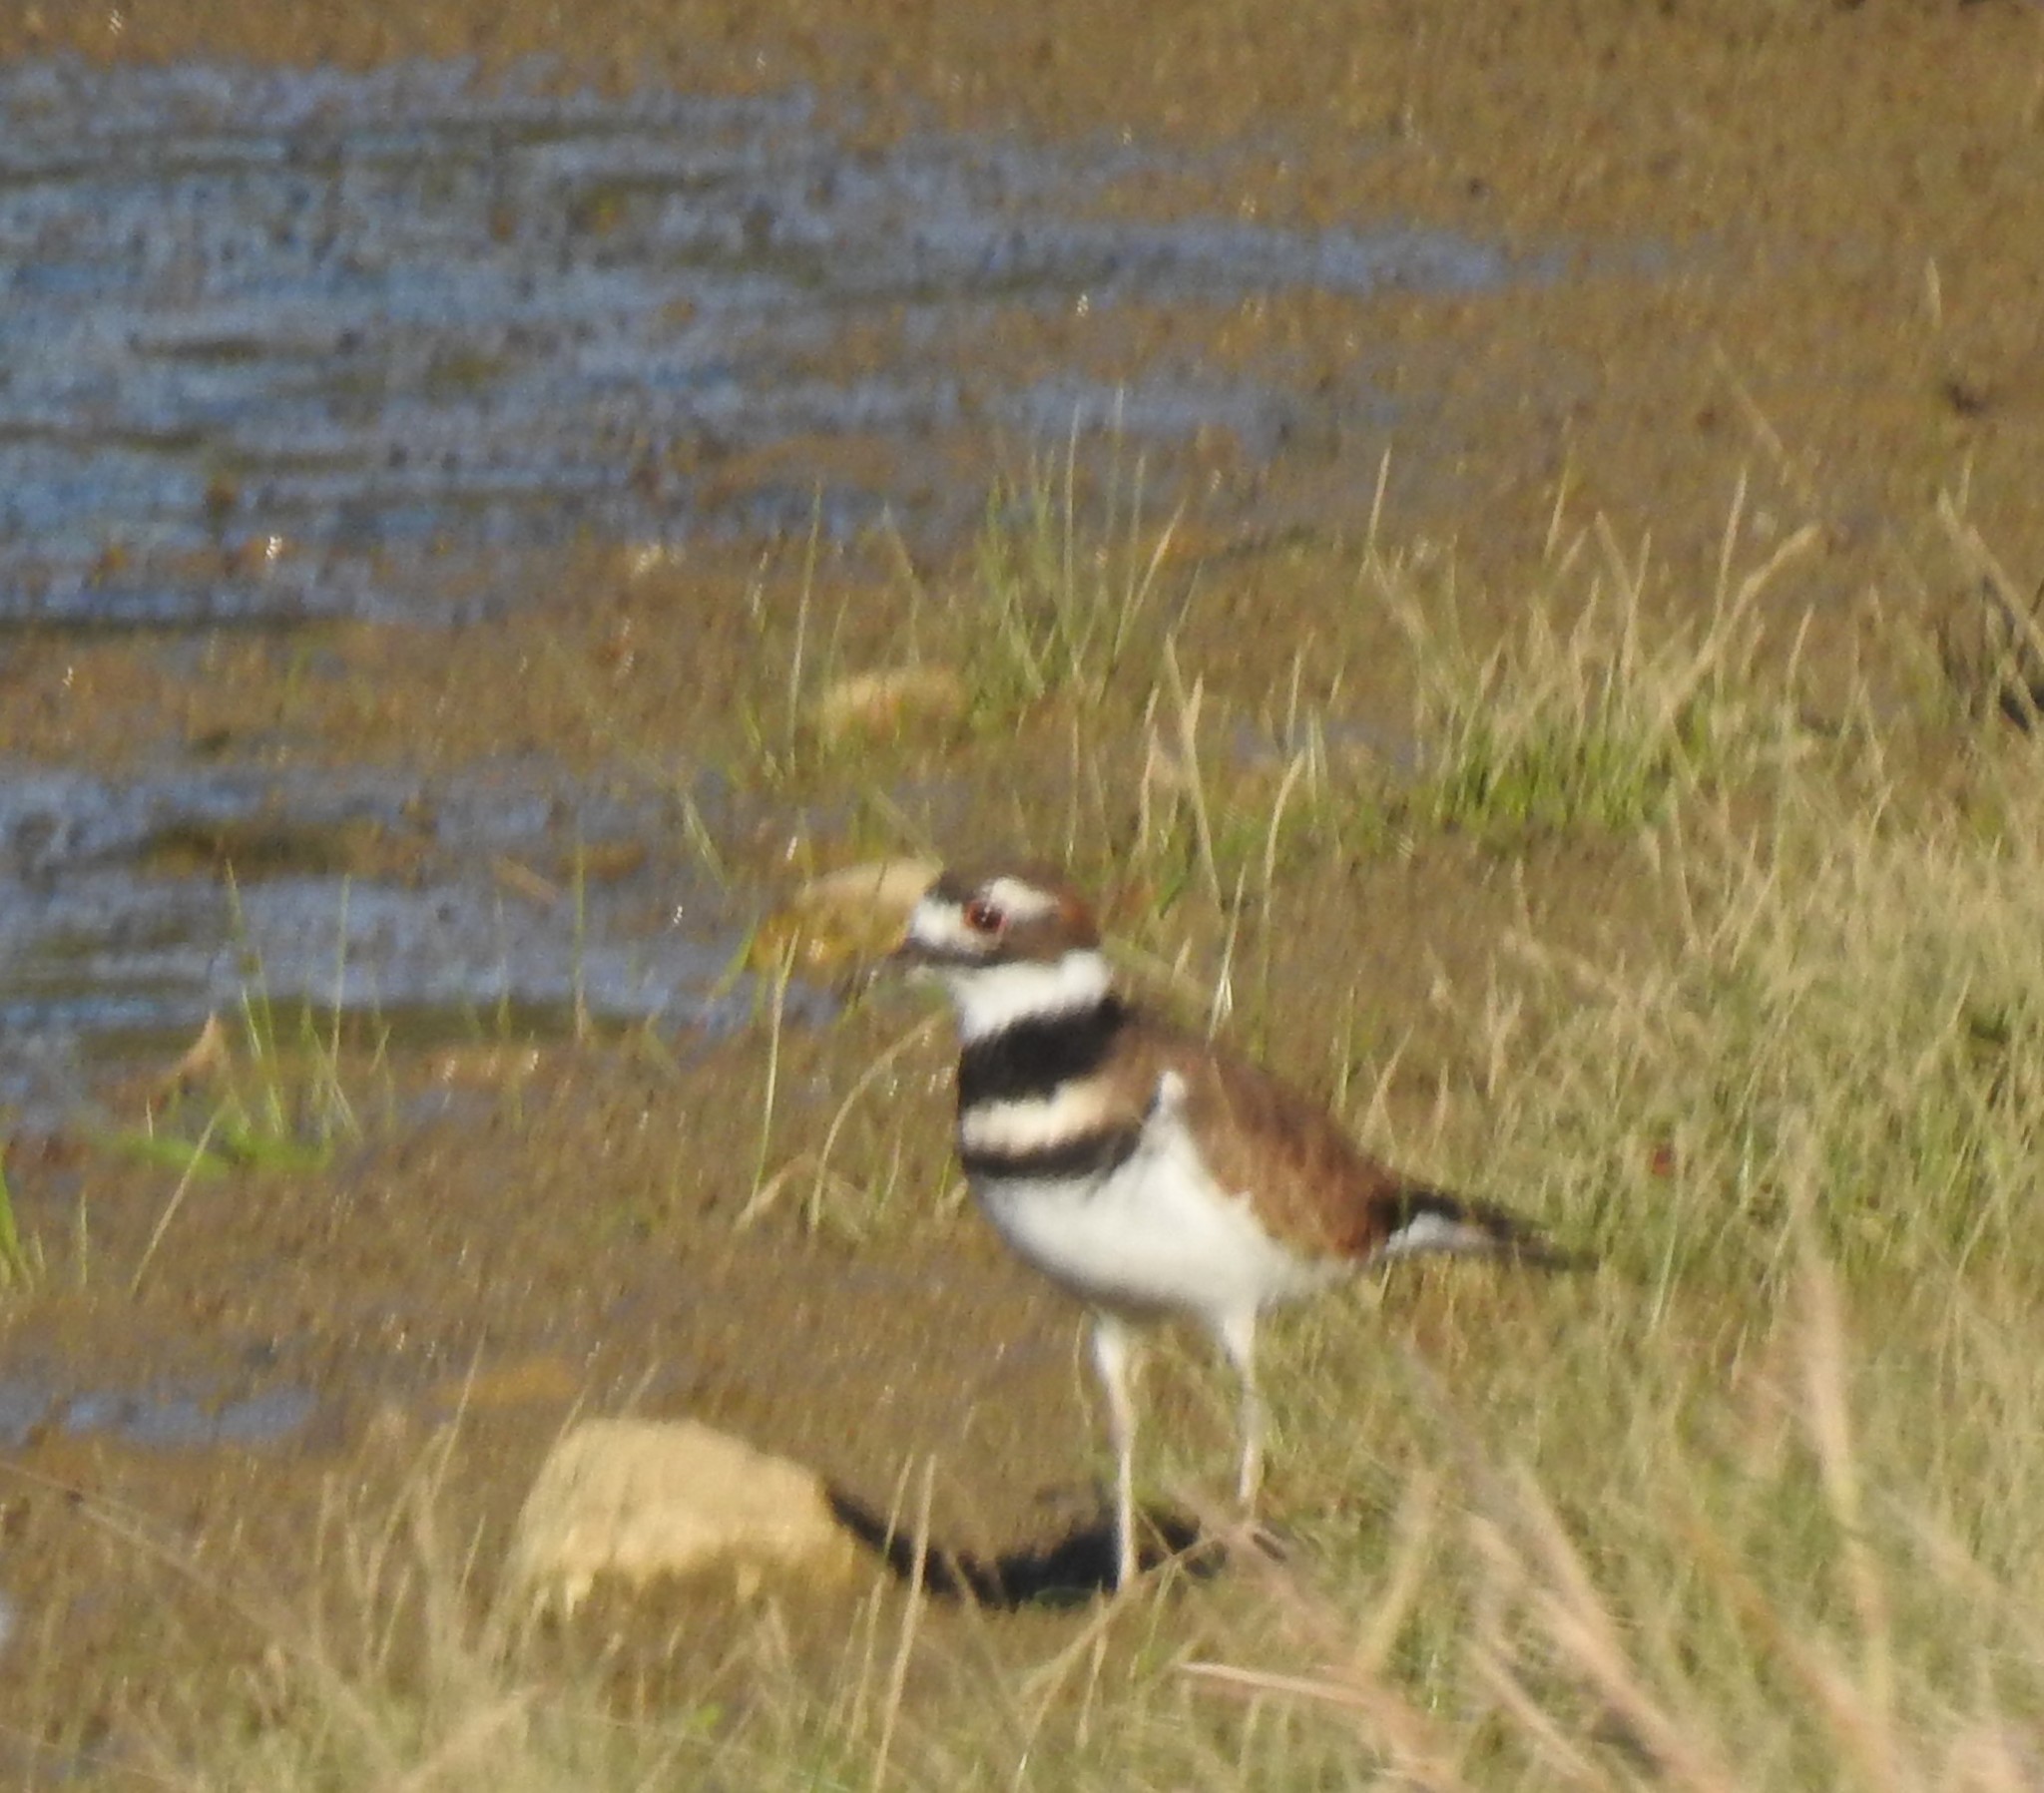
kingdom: Animalia
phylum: Chordata
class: Aves
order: Charadriiformes
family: Charadriidae
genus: Charadrius
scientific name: Charadrius vociferus
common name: Killdeer
